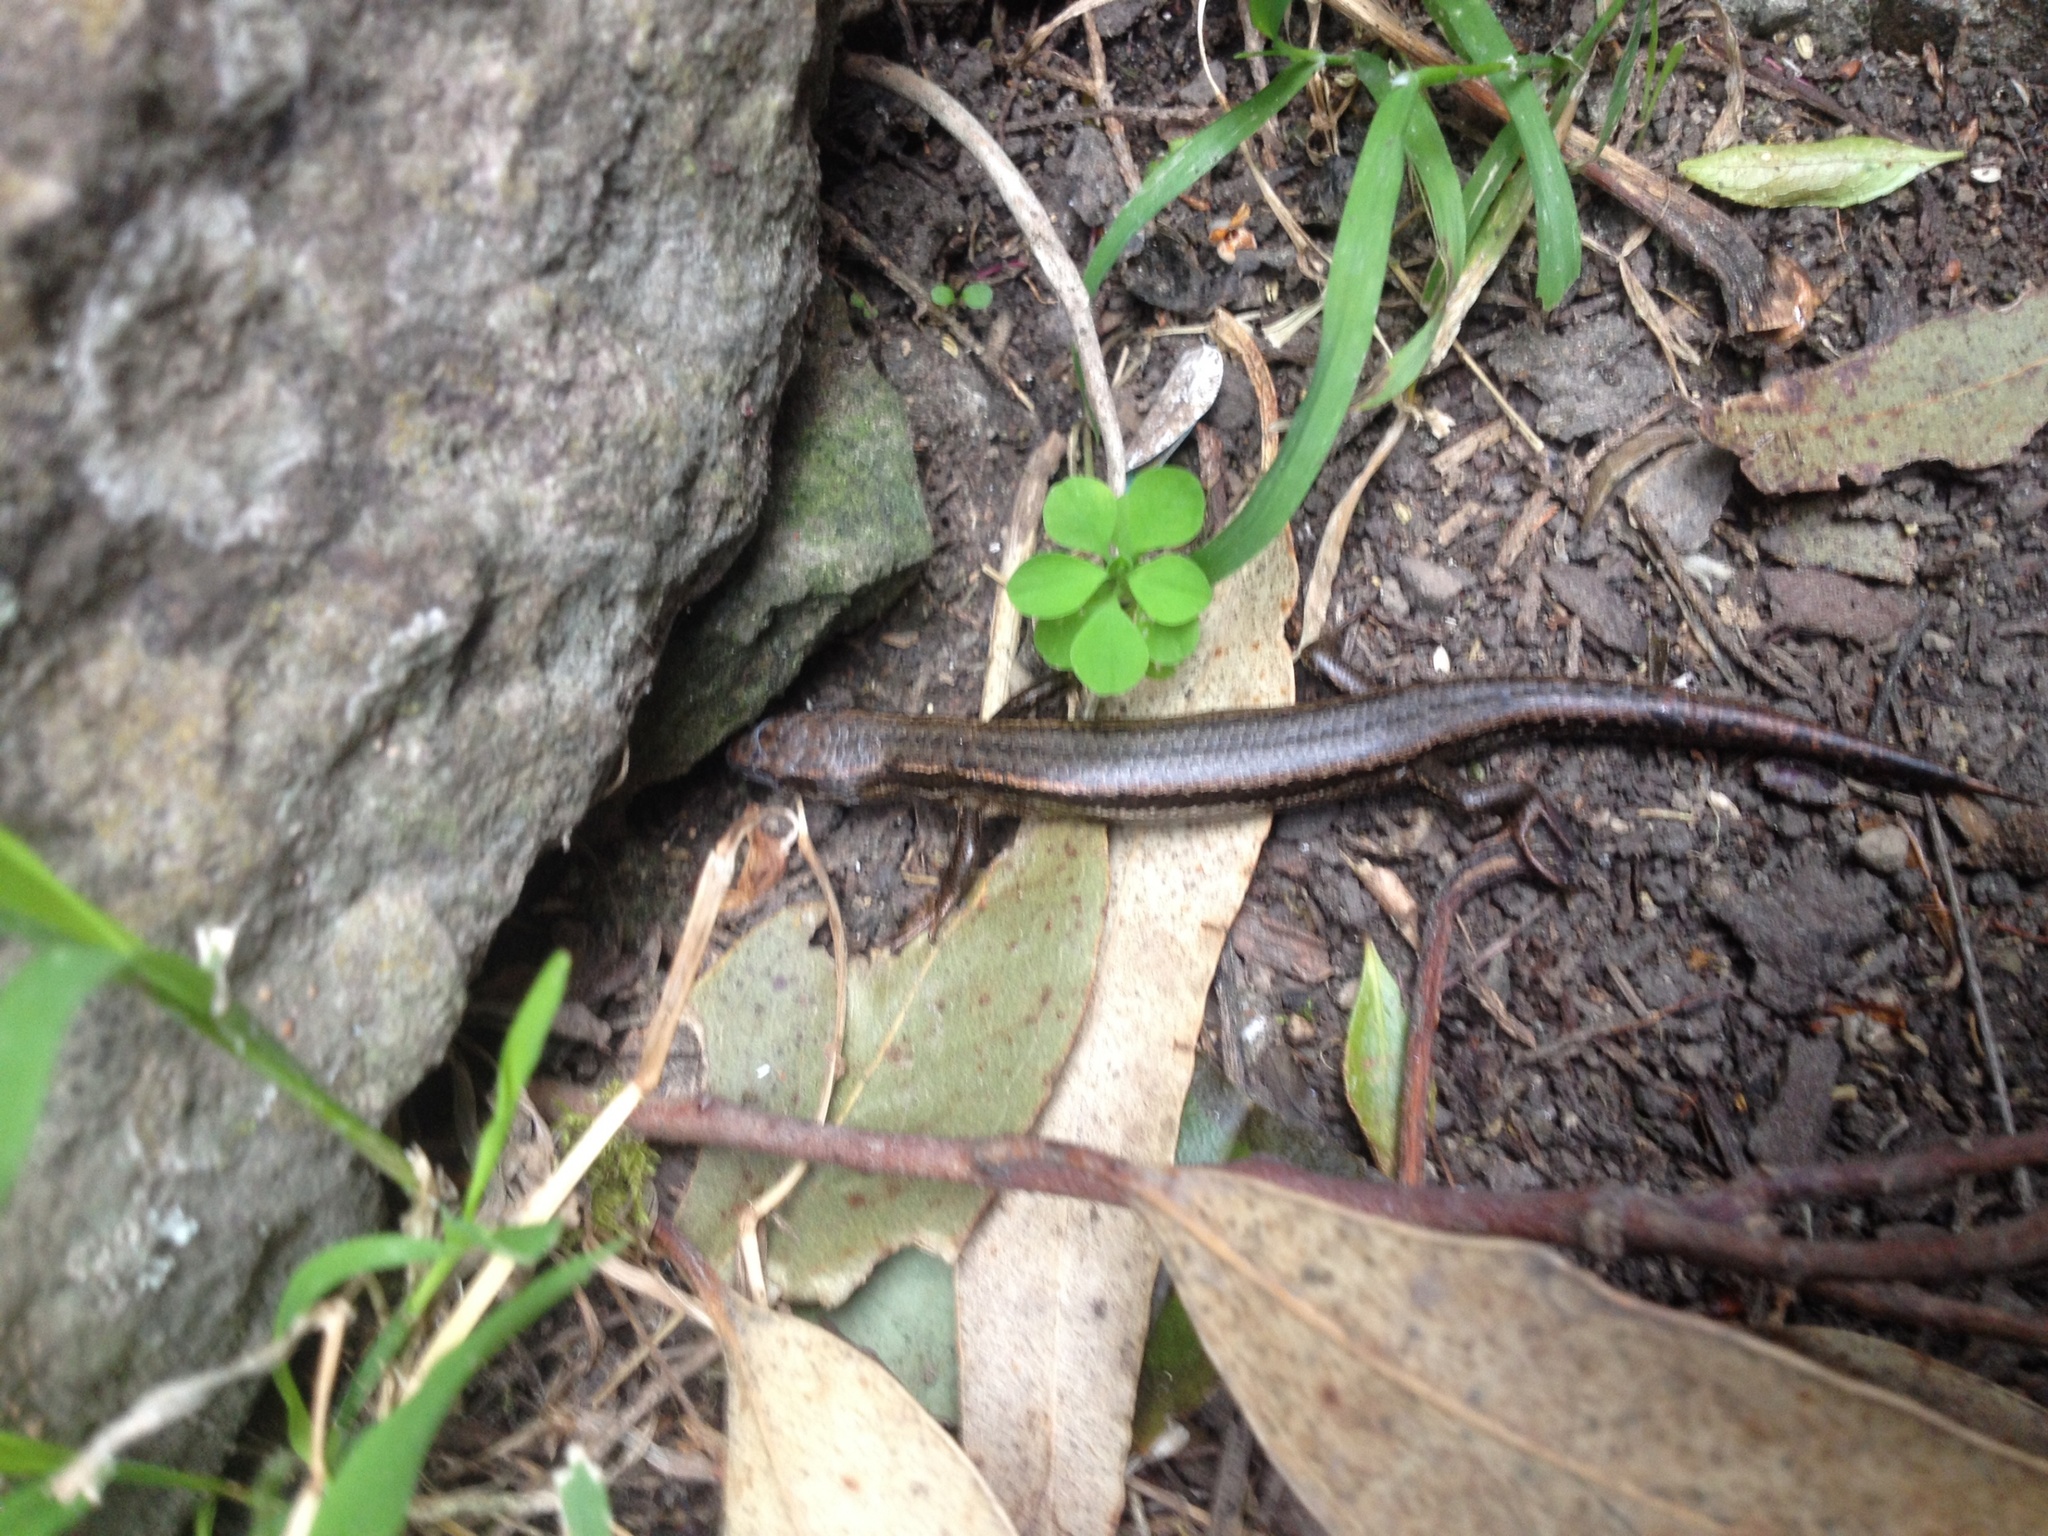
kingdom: Animalia
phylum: Chordata
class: Squamata
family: Scincidae
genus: Oligosoma
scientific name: Oligosoma polychroma
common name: Common new zealand skink
